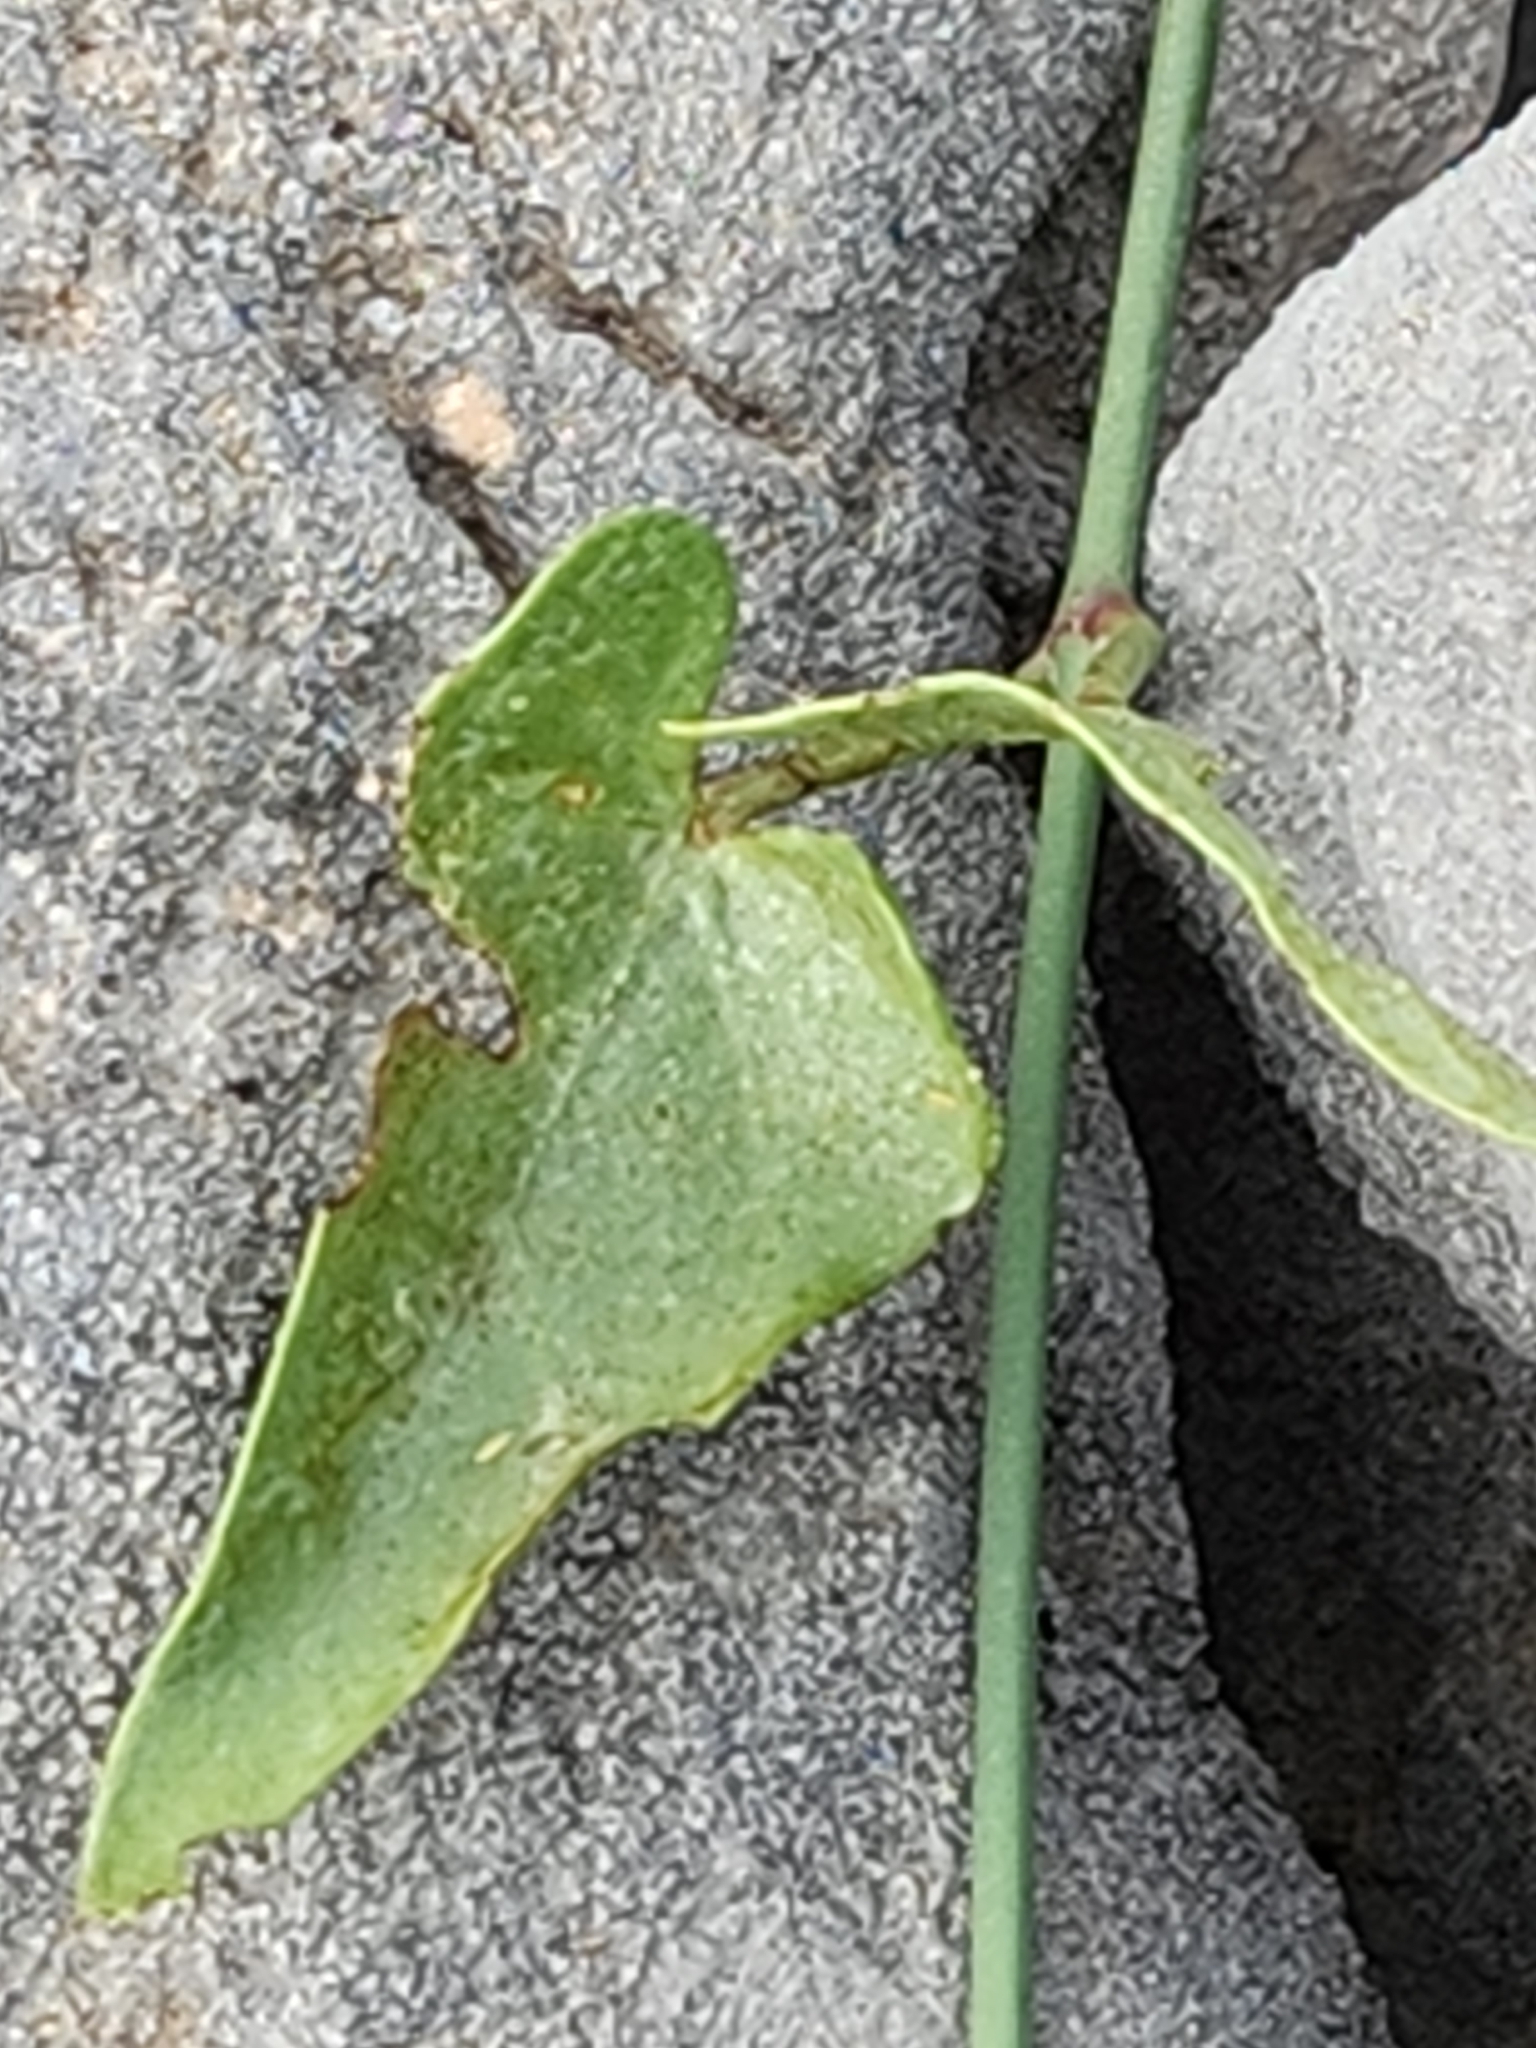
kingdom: Plantae
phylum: Tracheophyta
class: Magnoliopsida
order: Gentianales
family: Apocynaceae
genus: Funastrum
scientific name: Funastrum cynanchoides
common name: Climbing-milkweed
